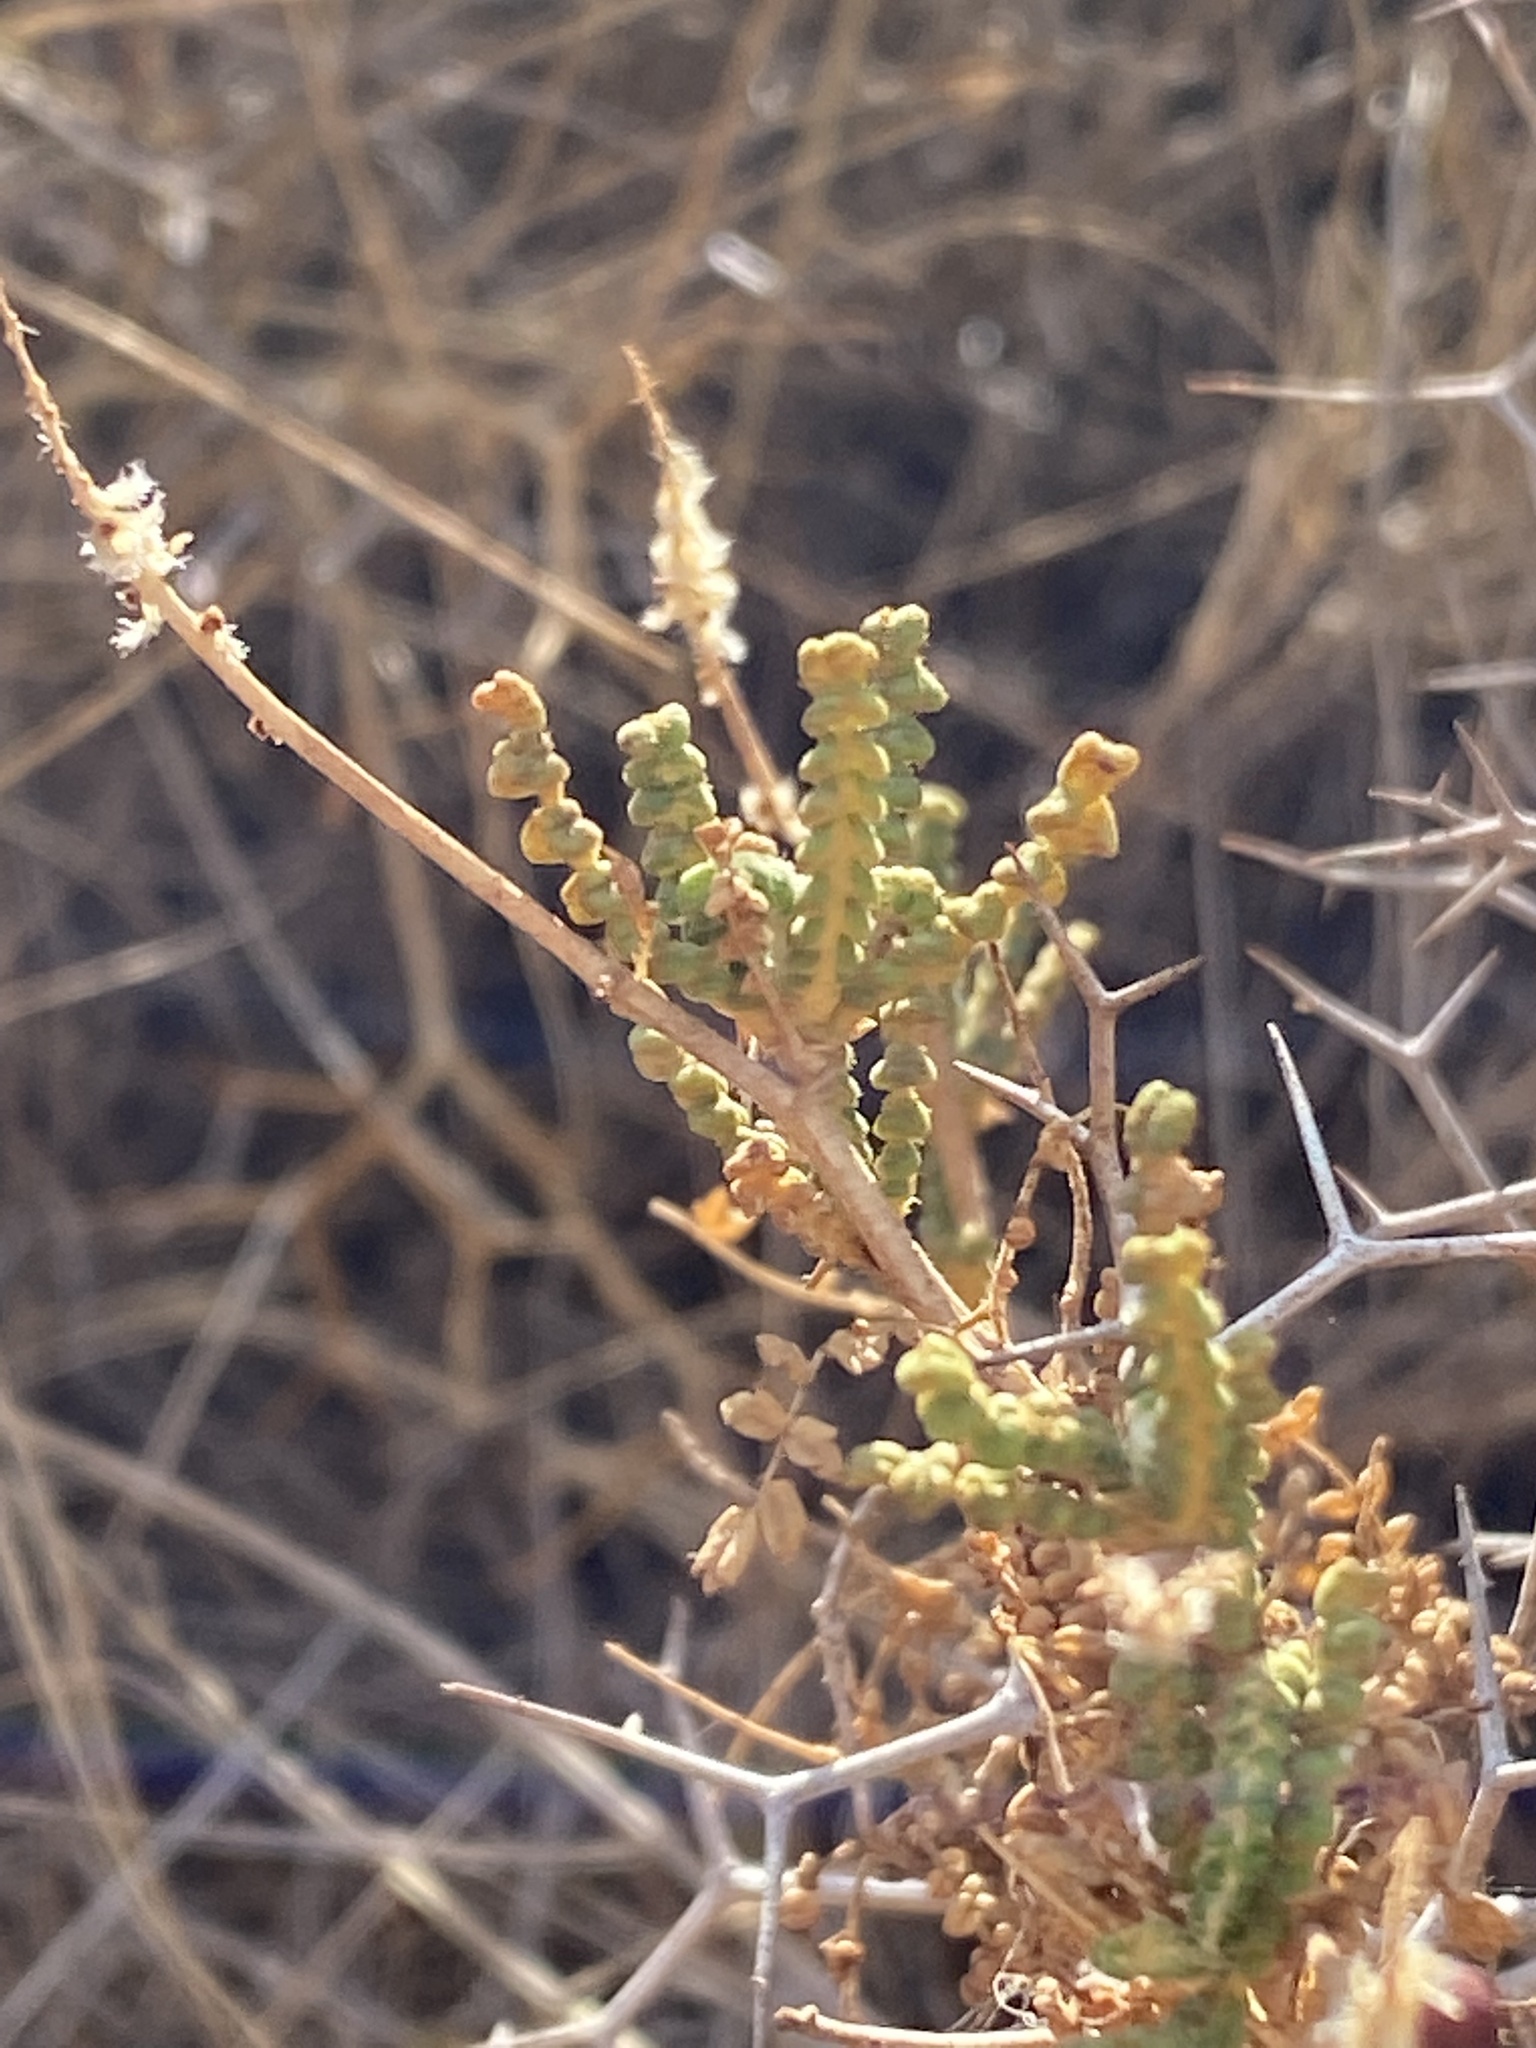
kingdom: Plantae
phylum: Tracheophyta
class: Magnoliopsida
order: Rosales
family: Rosaceae
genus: Sarcopoterium
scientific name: Sarcopoterium spinosum
